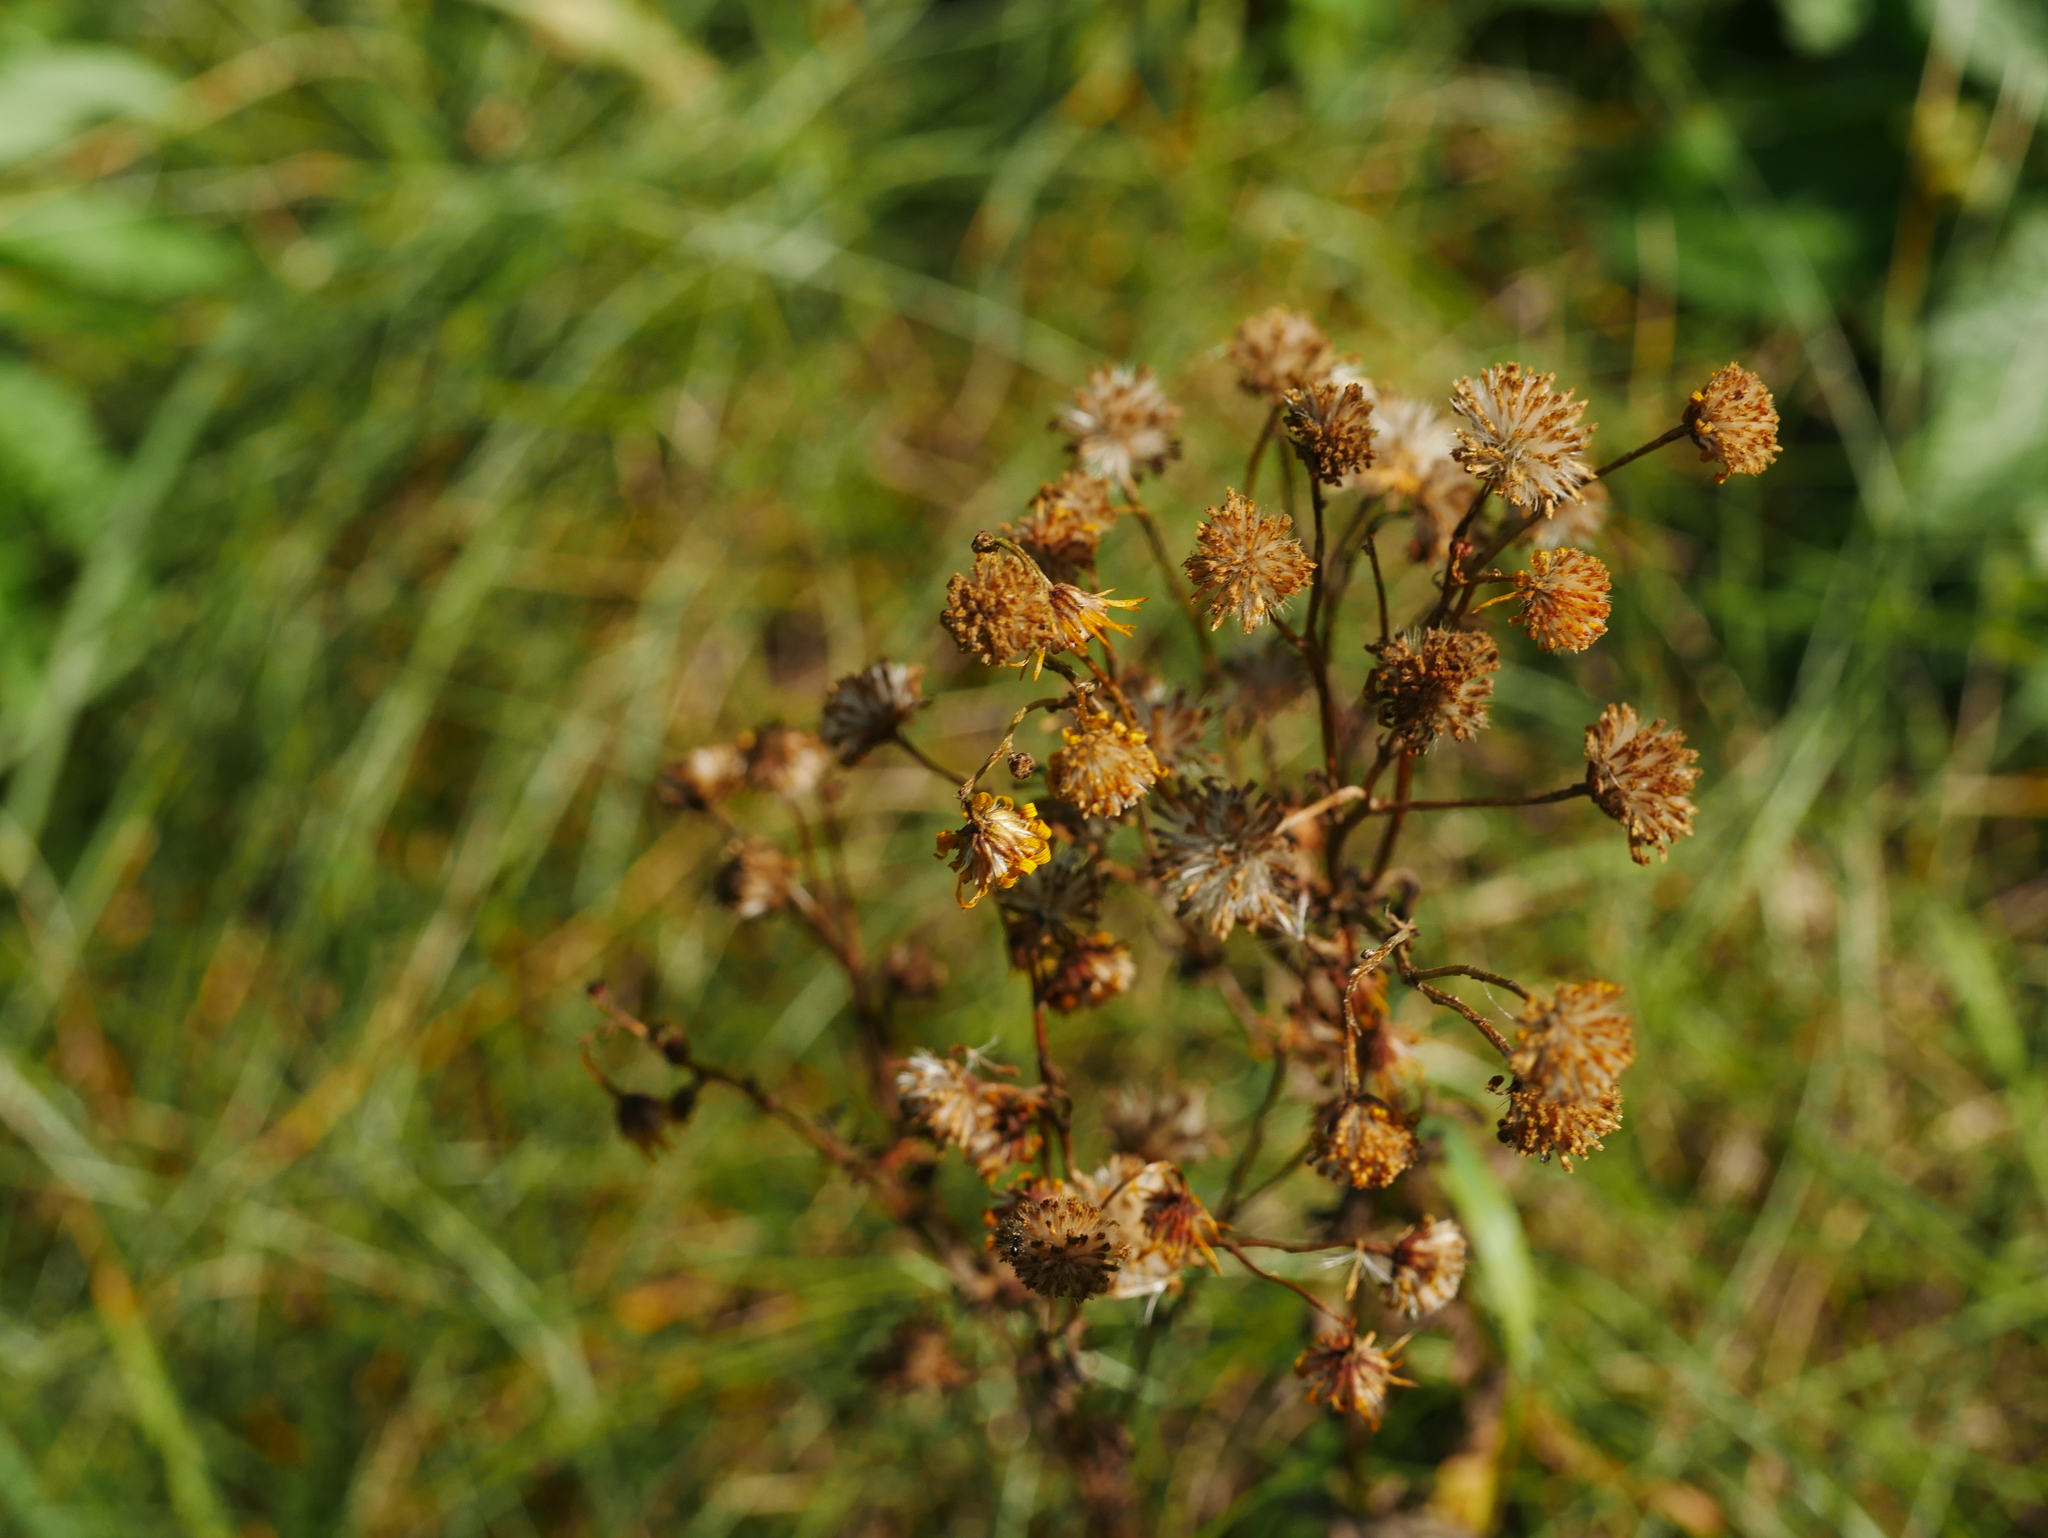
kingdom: Plantae
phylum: Tracheophyta
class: Magnoliopsida
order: Asterales
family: Asteraceae
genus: Jacobaea
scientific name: Jacobaea vulgaris
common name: Stinking willie
